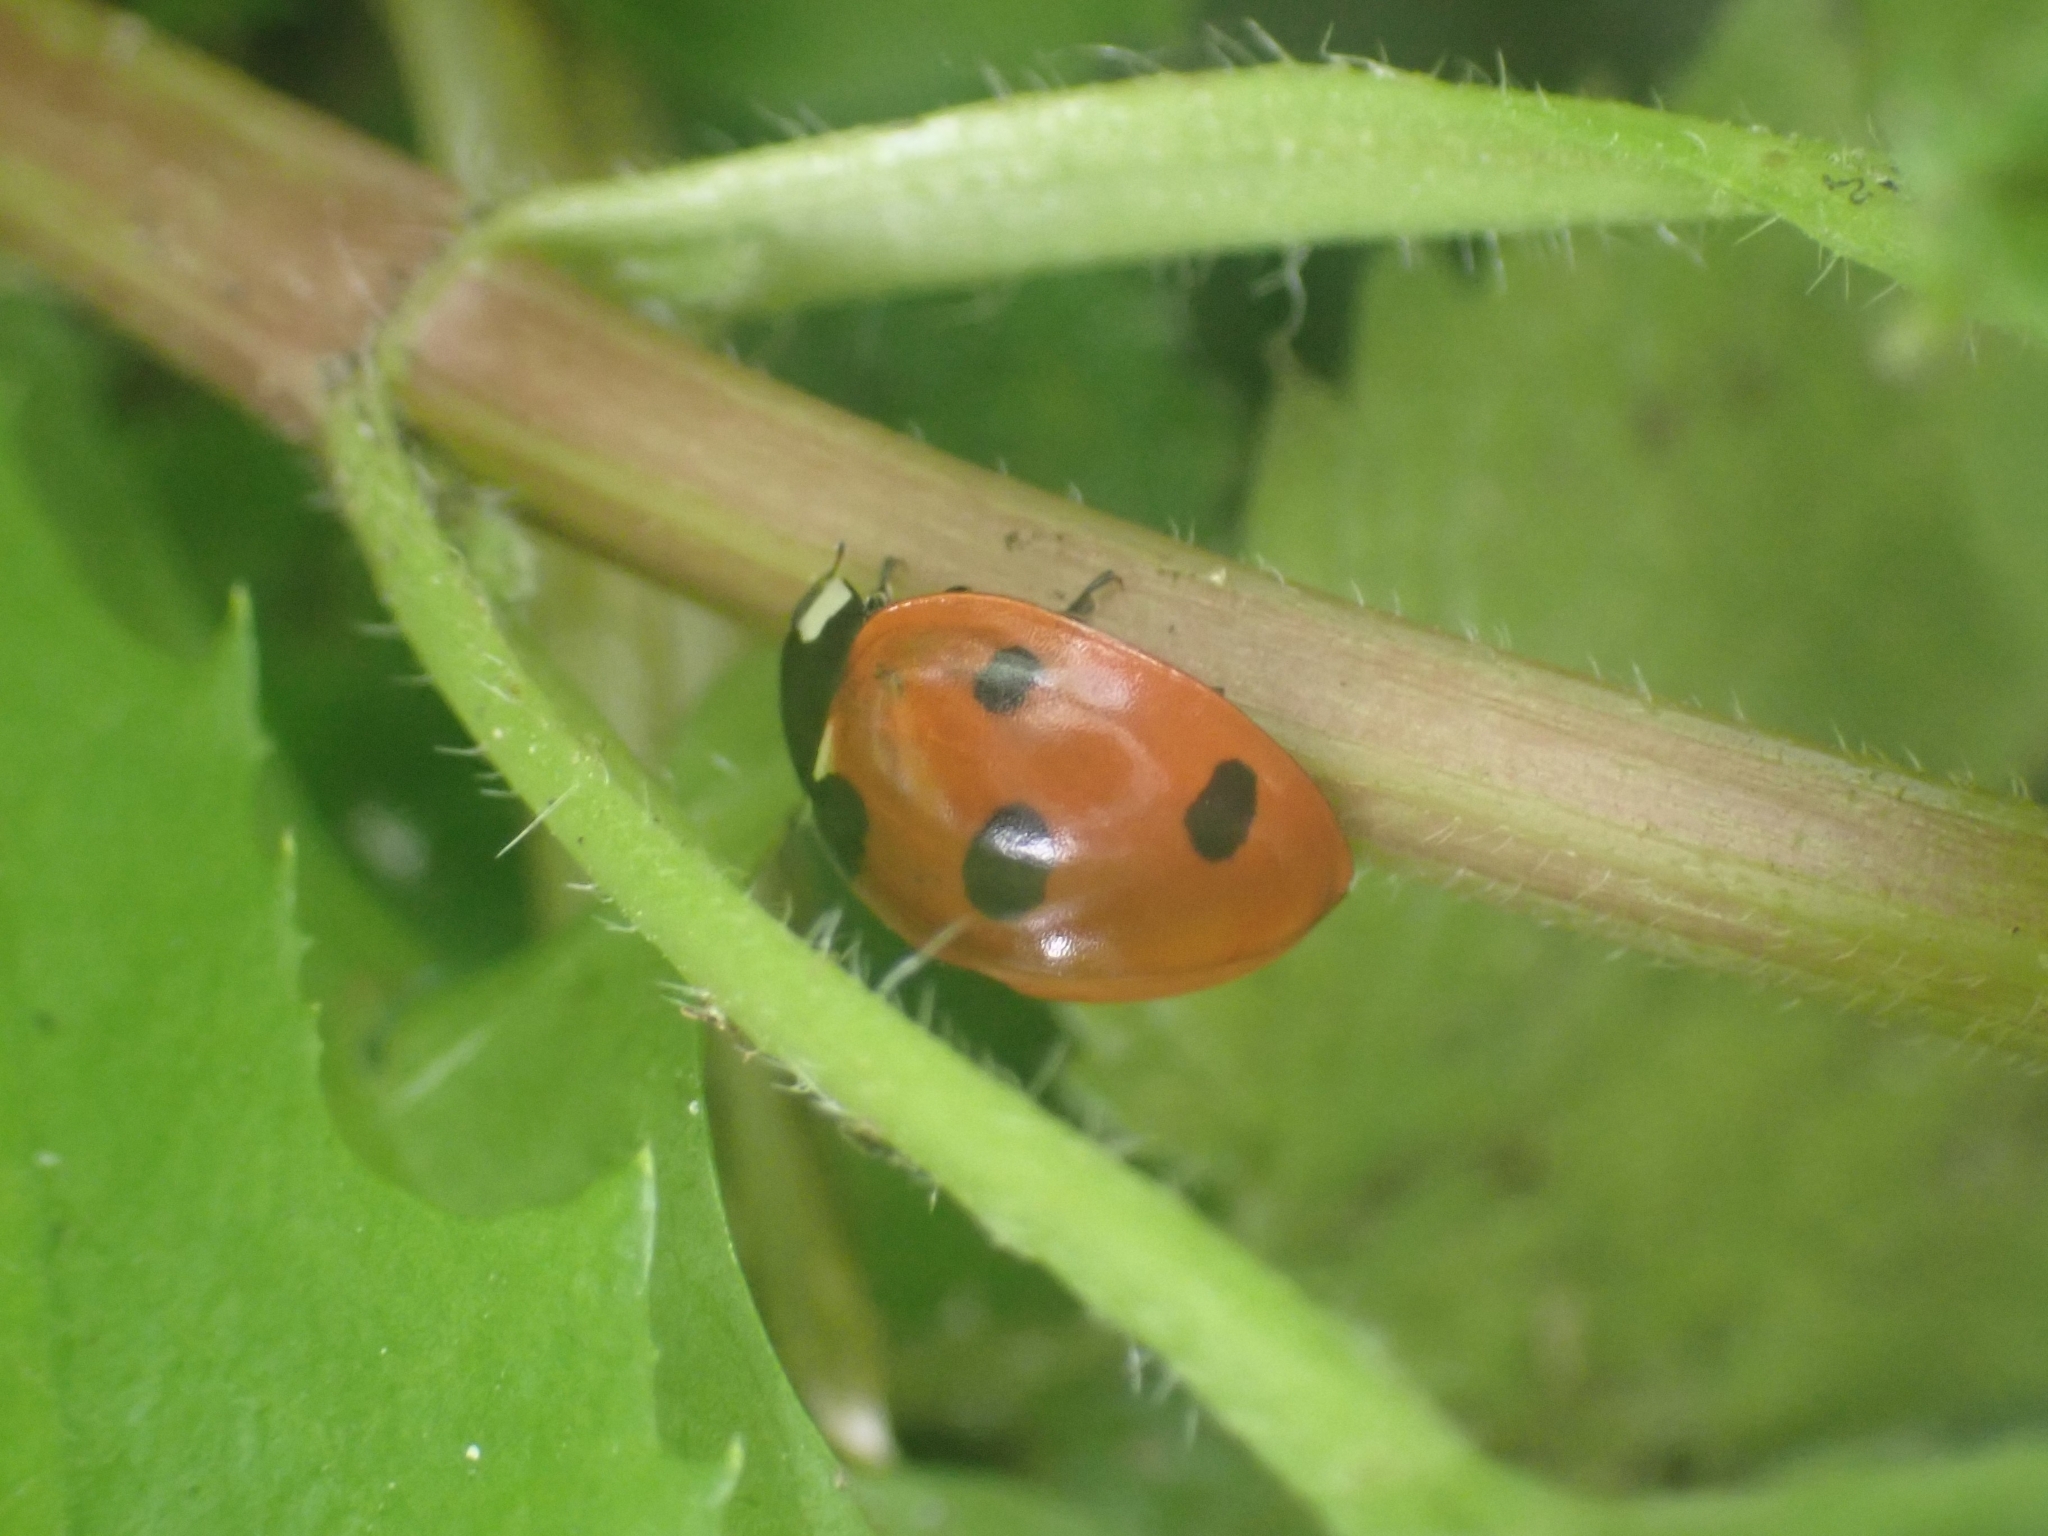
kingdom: Animalia
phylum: Arthropoda
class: Insecta
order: Coleoptera
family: Coccinellidae
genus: Coccinella
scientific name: Coccinella septempunctata
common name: Sevenspotted lady beetle
